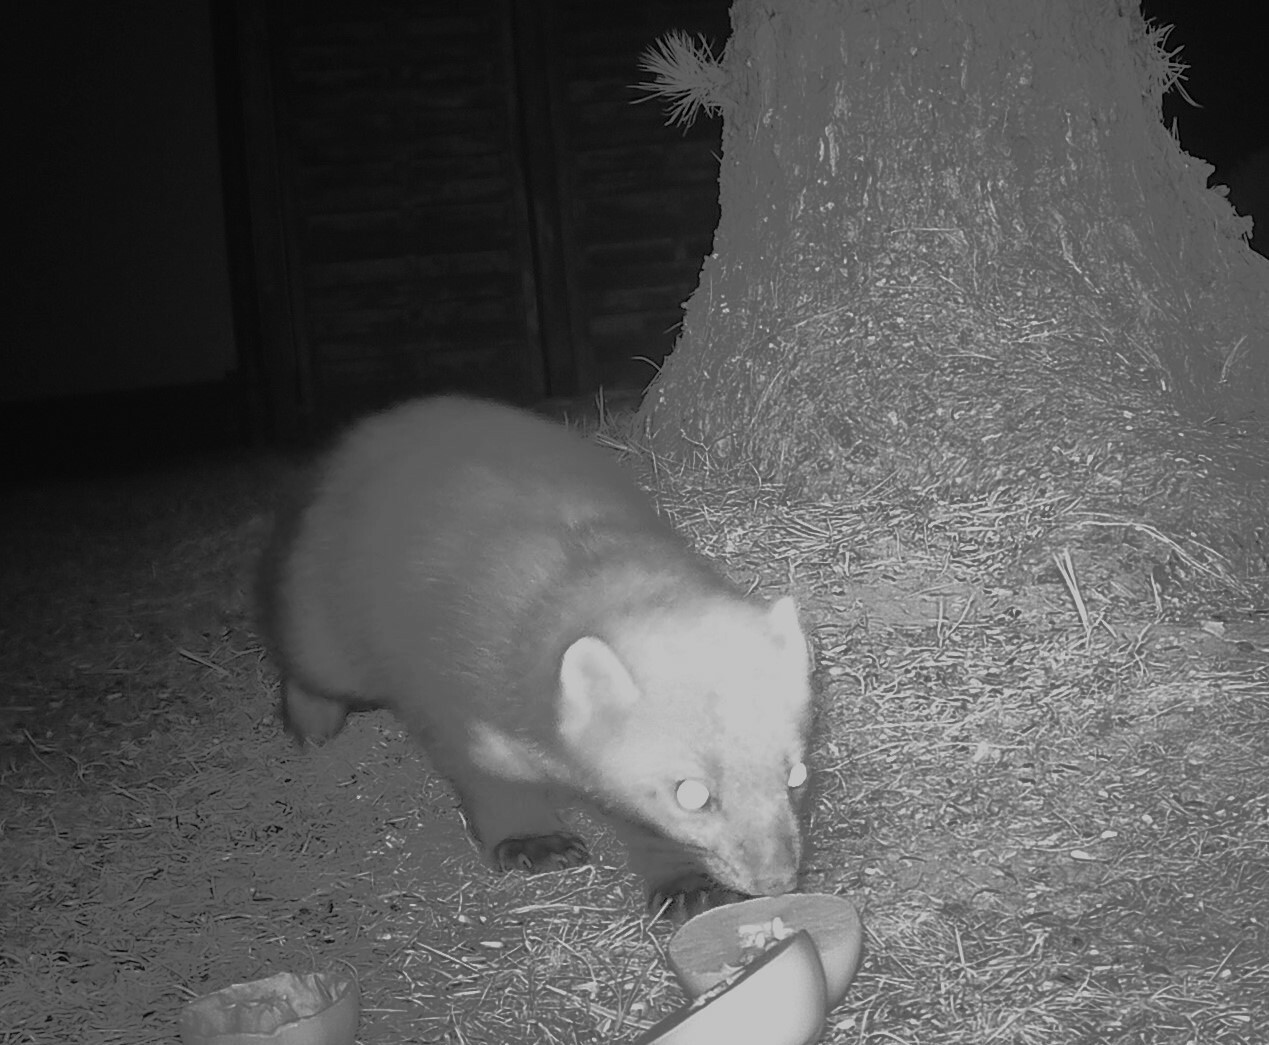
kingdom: Animalia
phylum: Chordata
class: Mammalia
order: Carnivora
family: Mustelidae
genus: Martes
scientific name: Martes foina
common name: Beech marten
